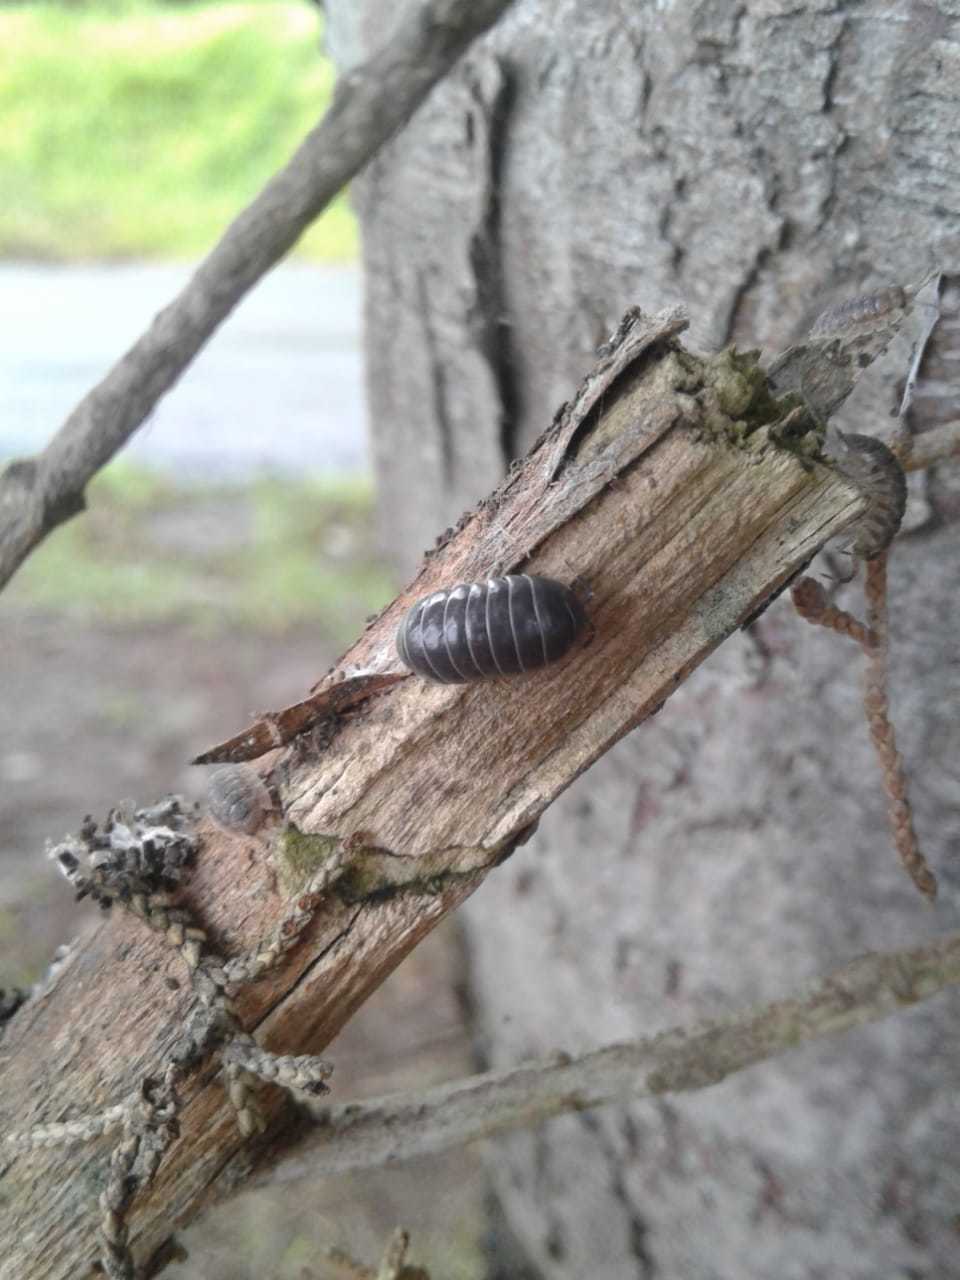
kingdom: Animalia
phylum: Arthropoda
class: Malacostraca
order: Isopoda
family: Armadillidiidae
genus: Armadillidium
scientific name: Armadillidium vulgare
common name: Common pill woodlouse
